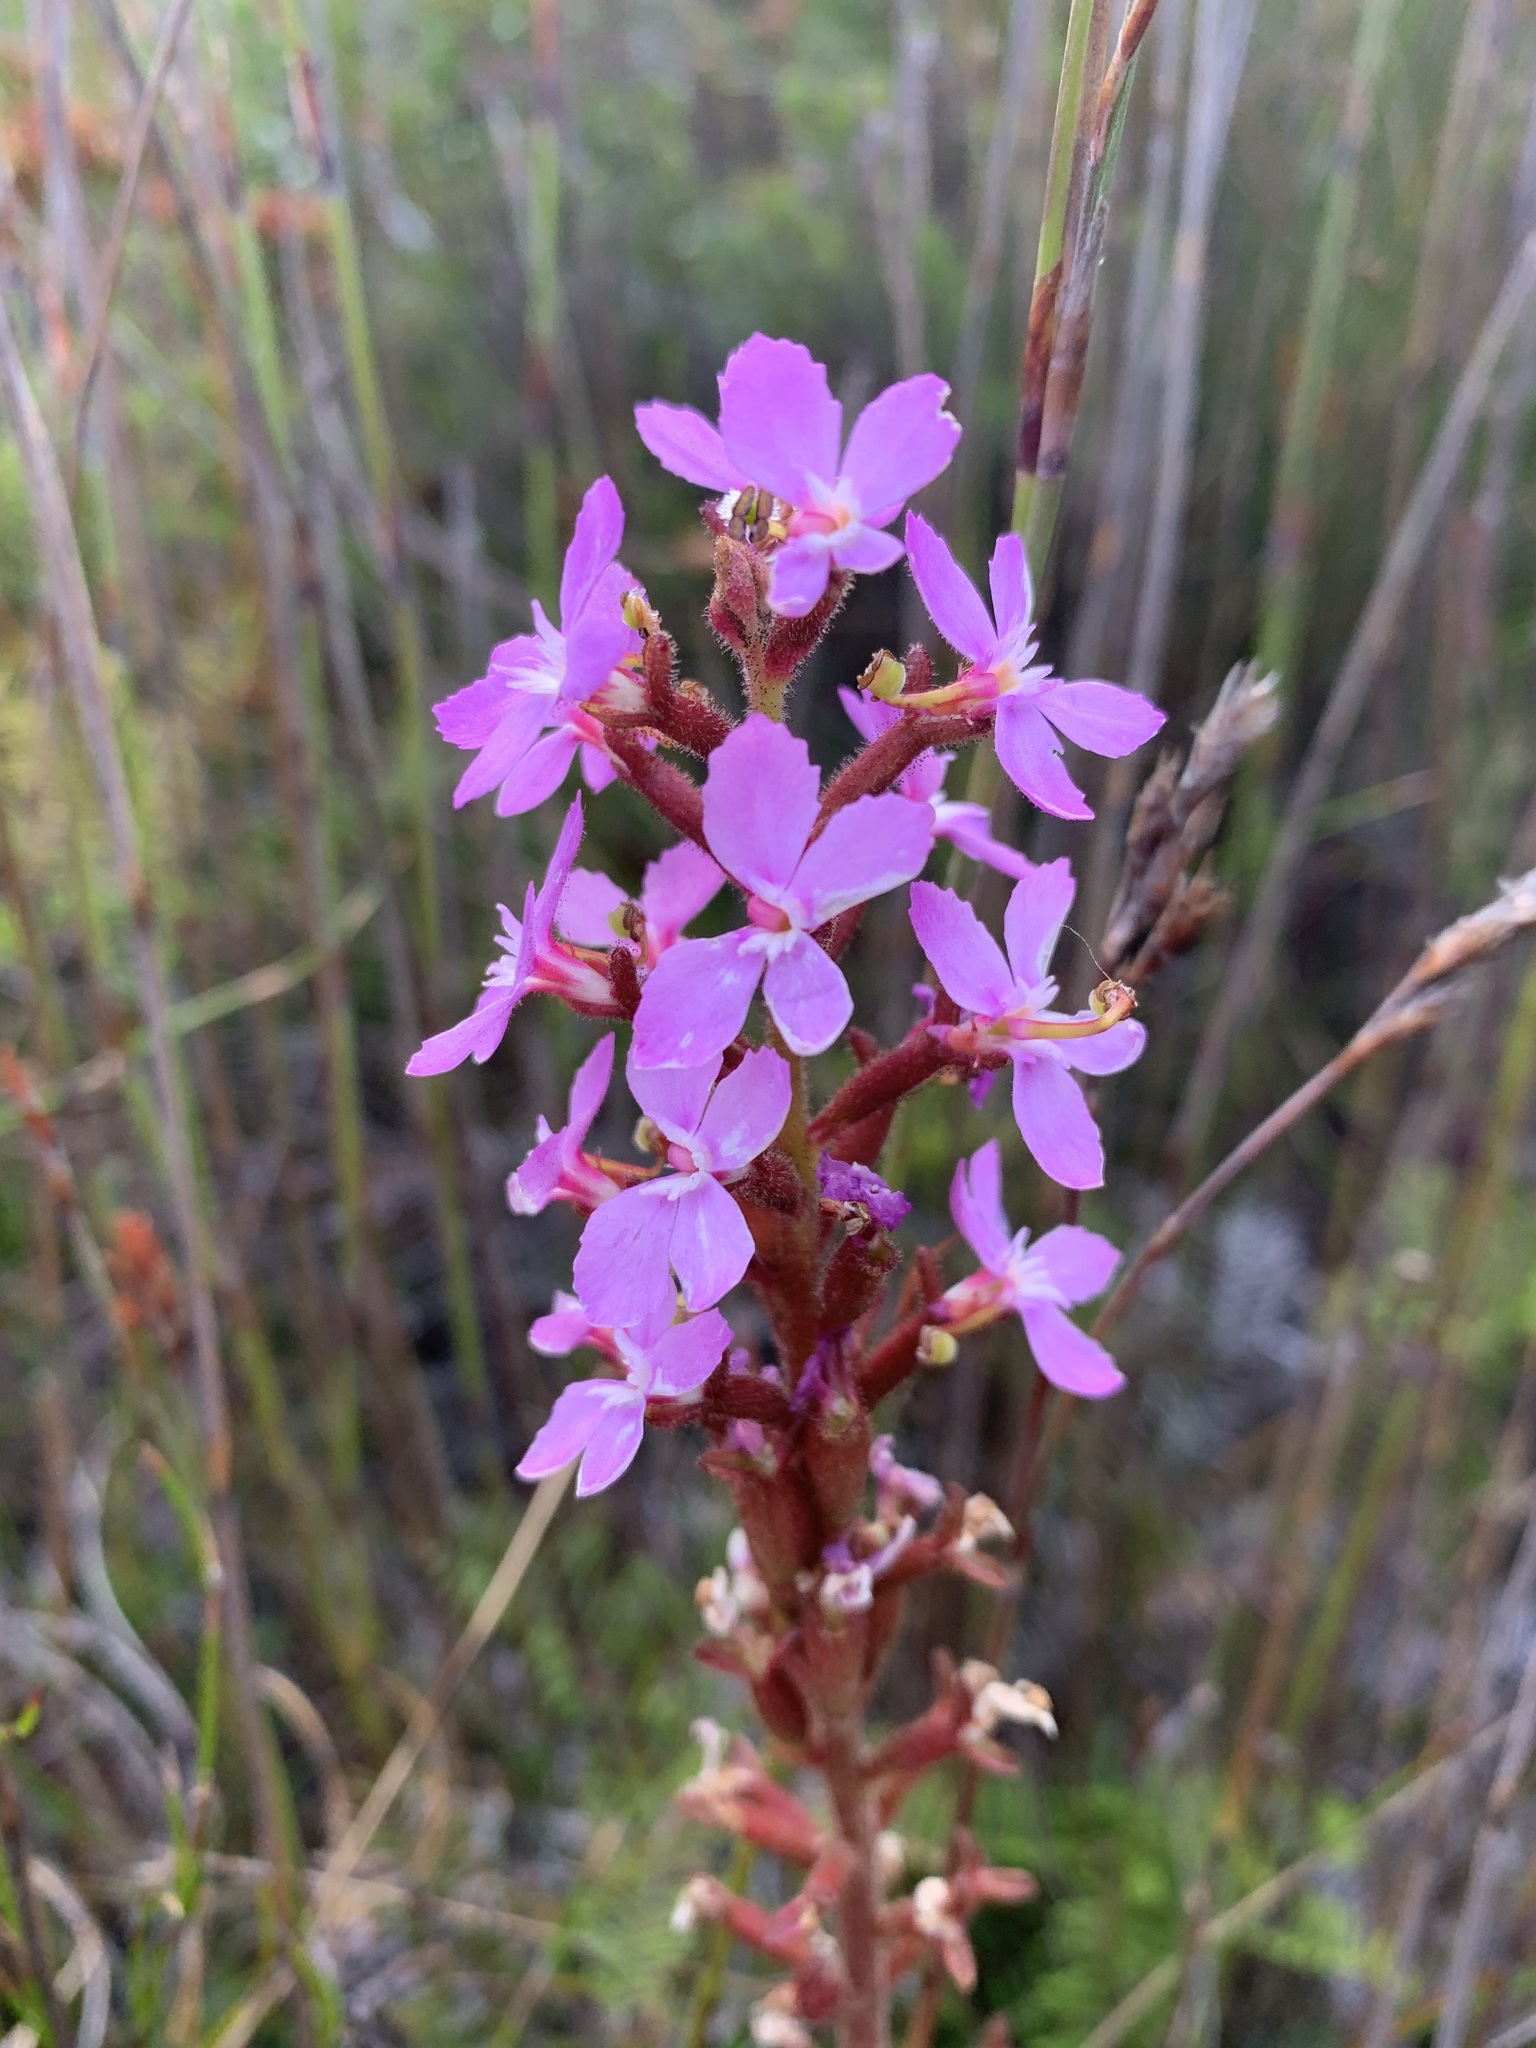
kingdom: Plantae
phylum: Tracheophyta
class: Magnoliopsida
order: Asterales
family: Stylidiaceae
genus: Stylidium
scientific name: Stylidium graminifolium
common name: Grass triggerplant
